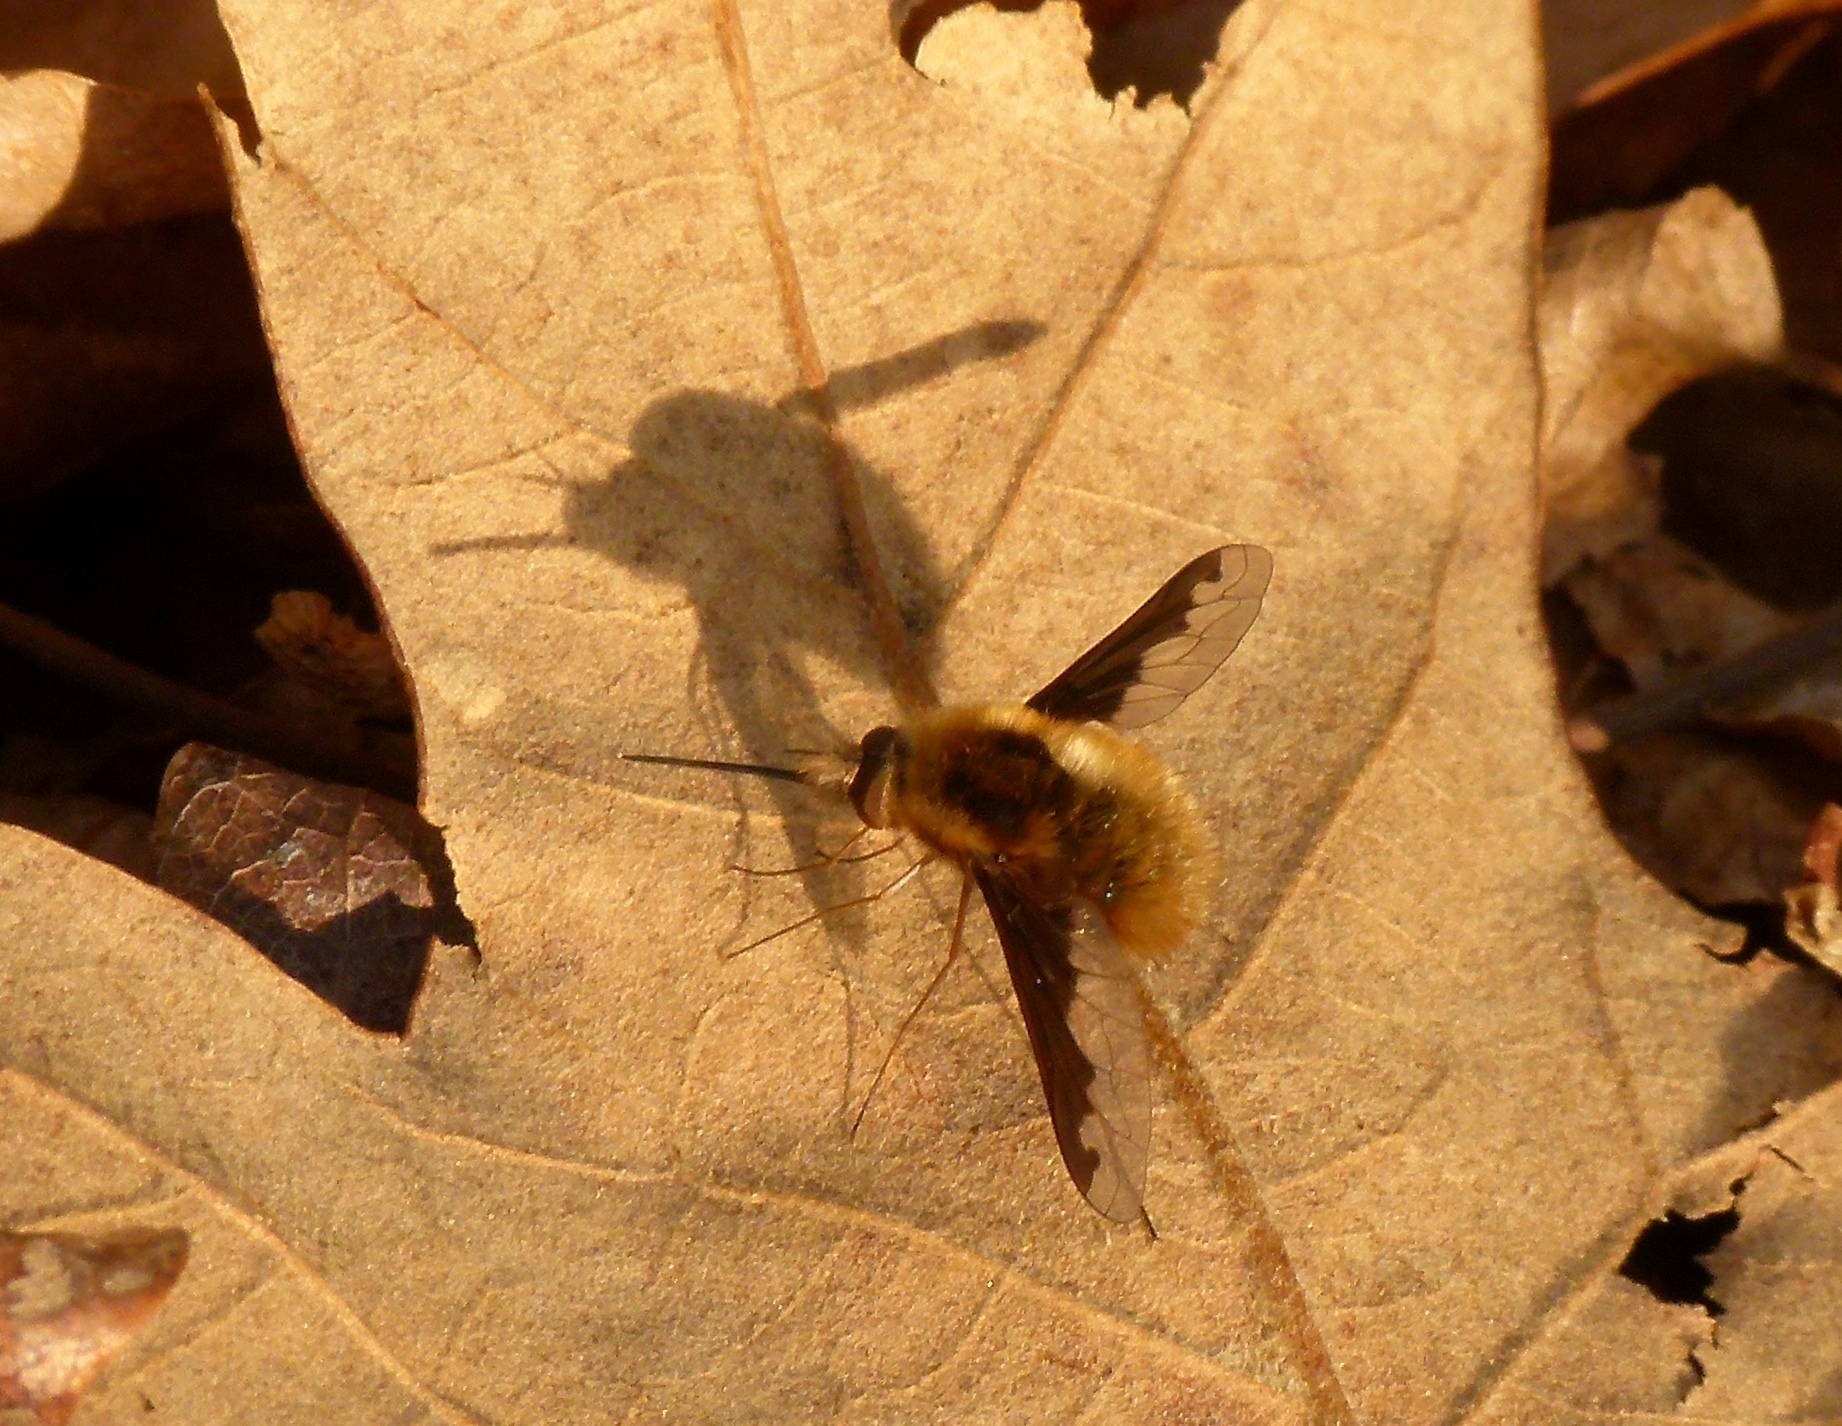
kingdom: Animalia
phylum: Arthropoda
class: Insecta
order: Diptera
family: Bombyliidae
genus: Bombylius
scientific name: Bombylius major
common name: Bee fly
